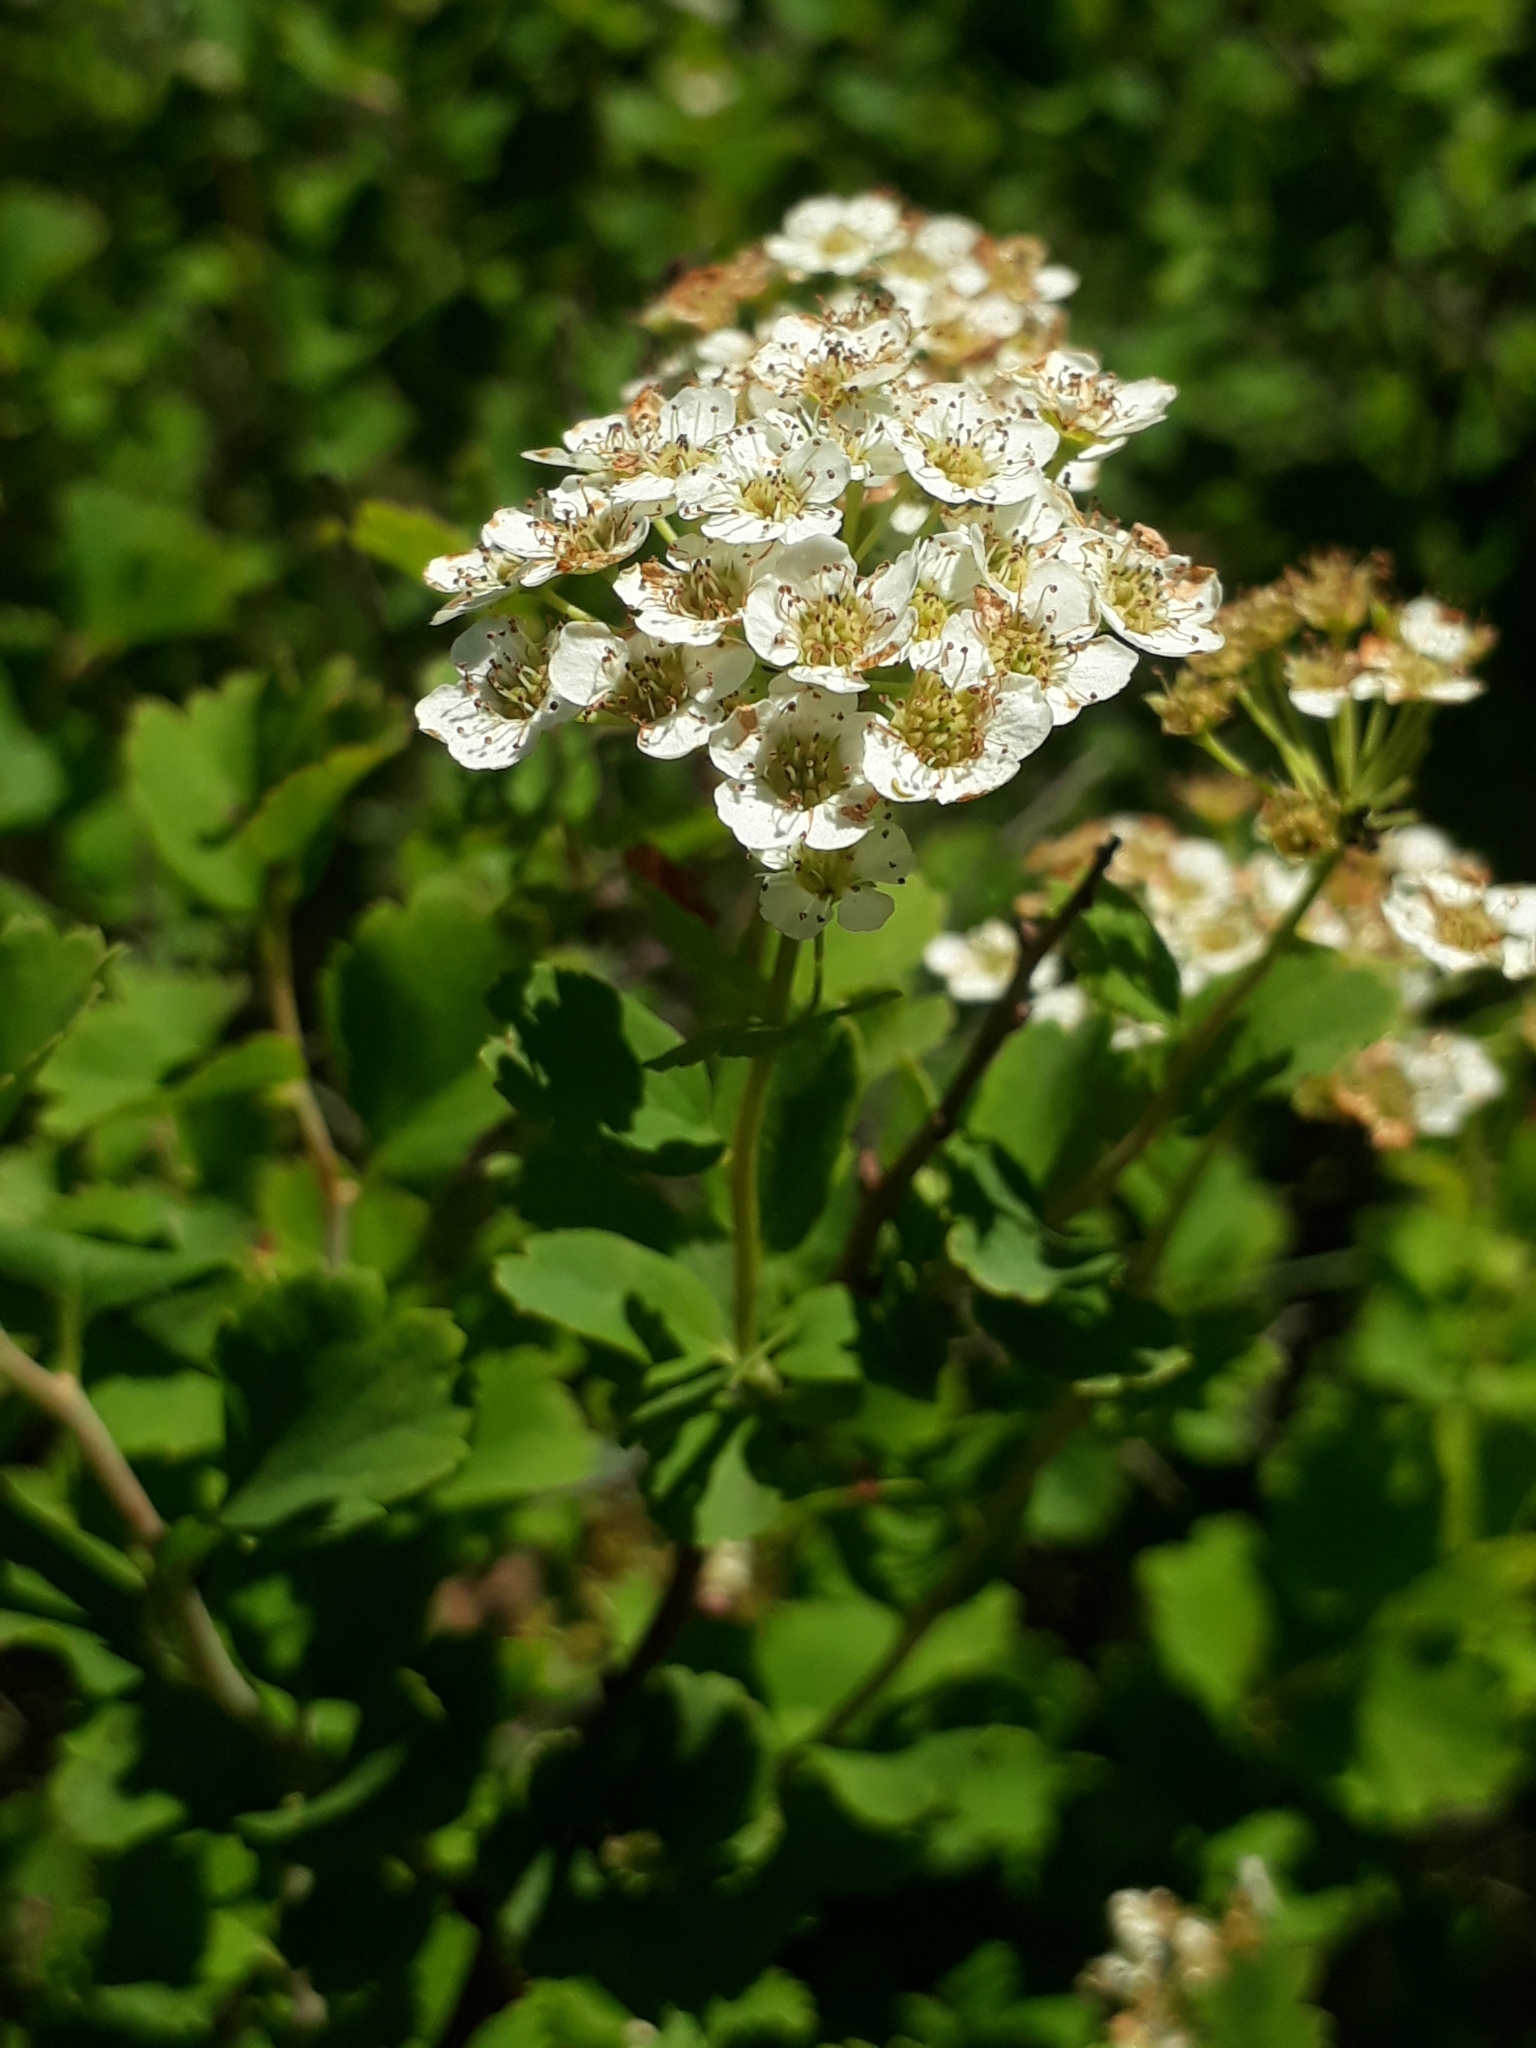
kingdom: Plantae
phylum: Tracheophyta
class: Magnoliopsida
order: Rosales
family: Rosaceae
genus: Spiraea
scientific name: Spiraea trilobata
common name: Asian meadowsweet
